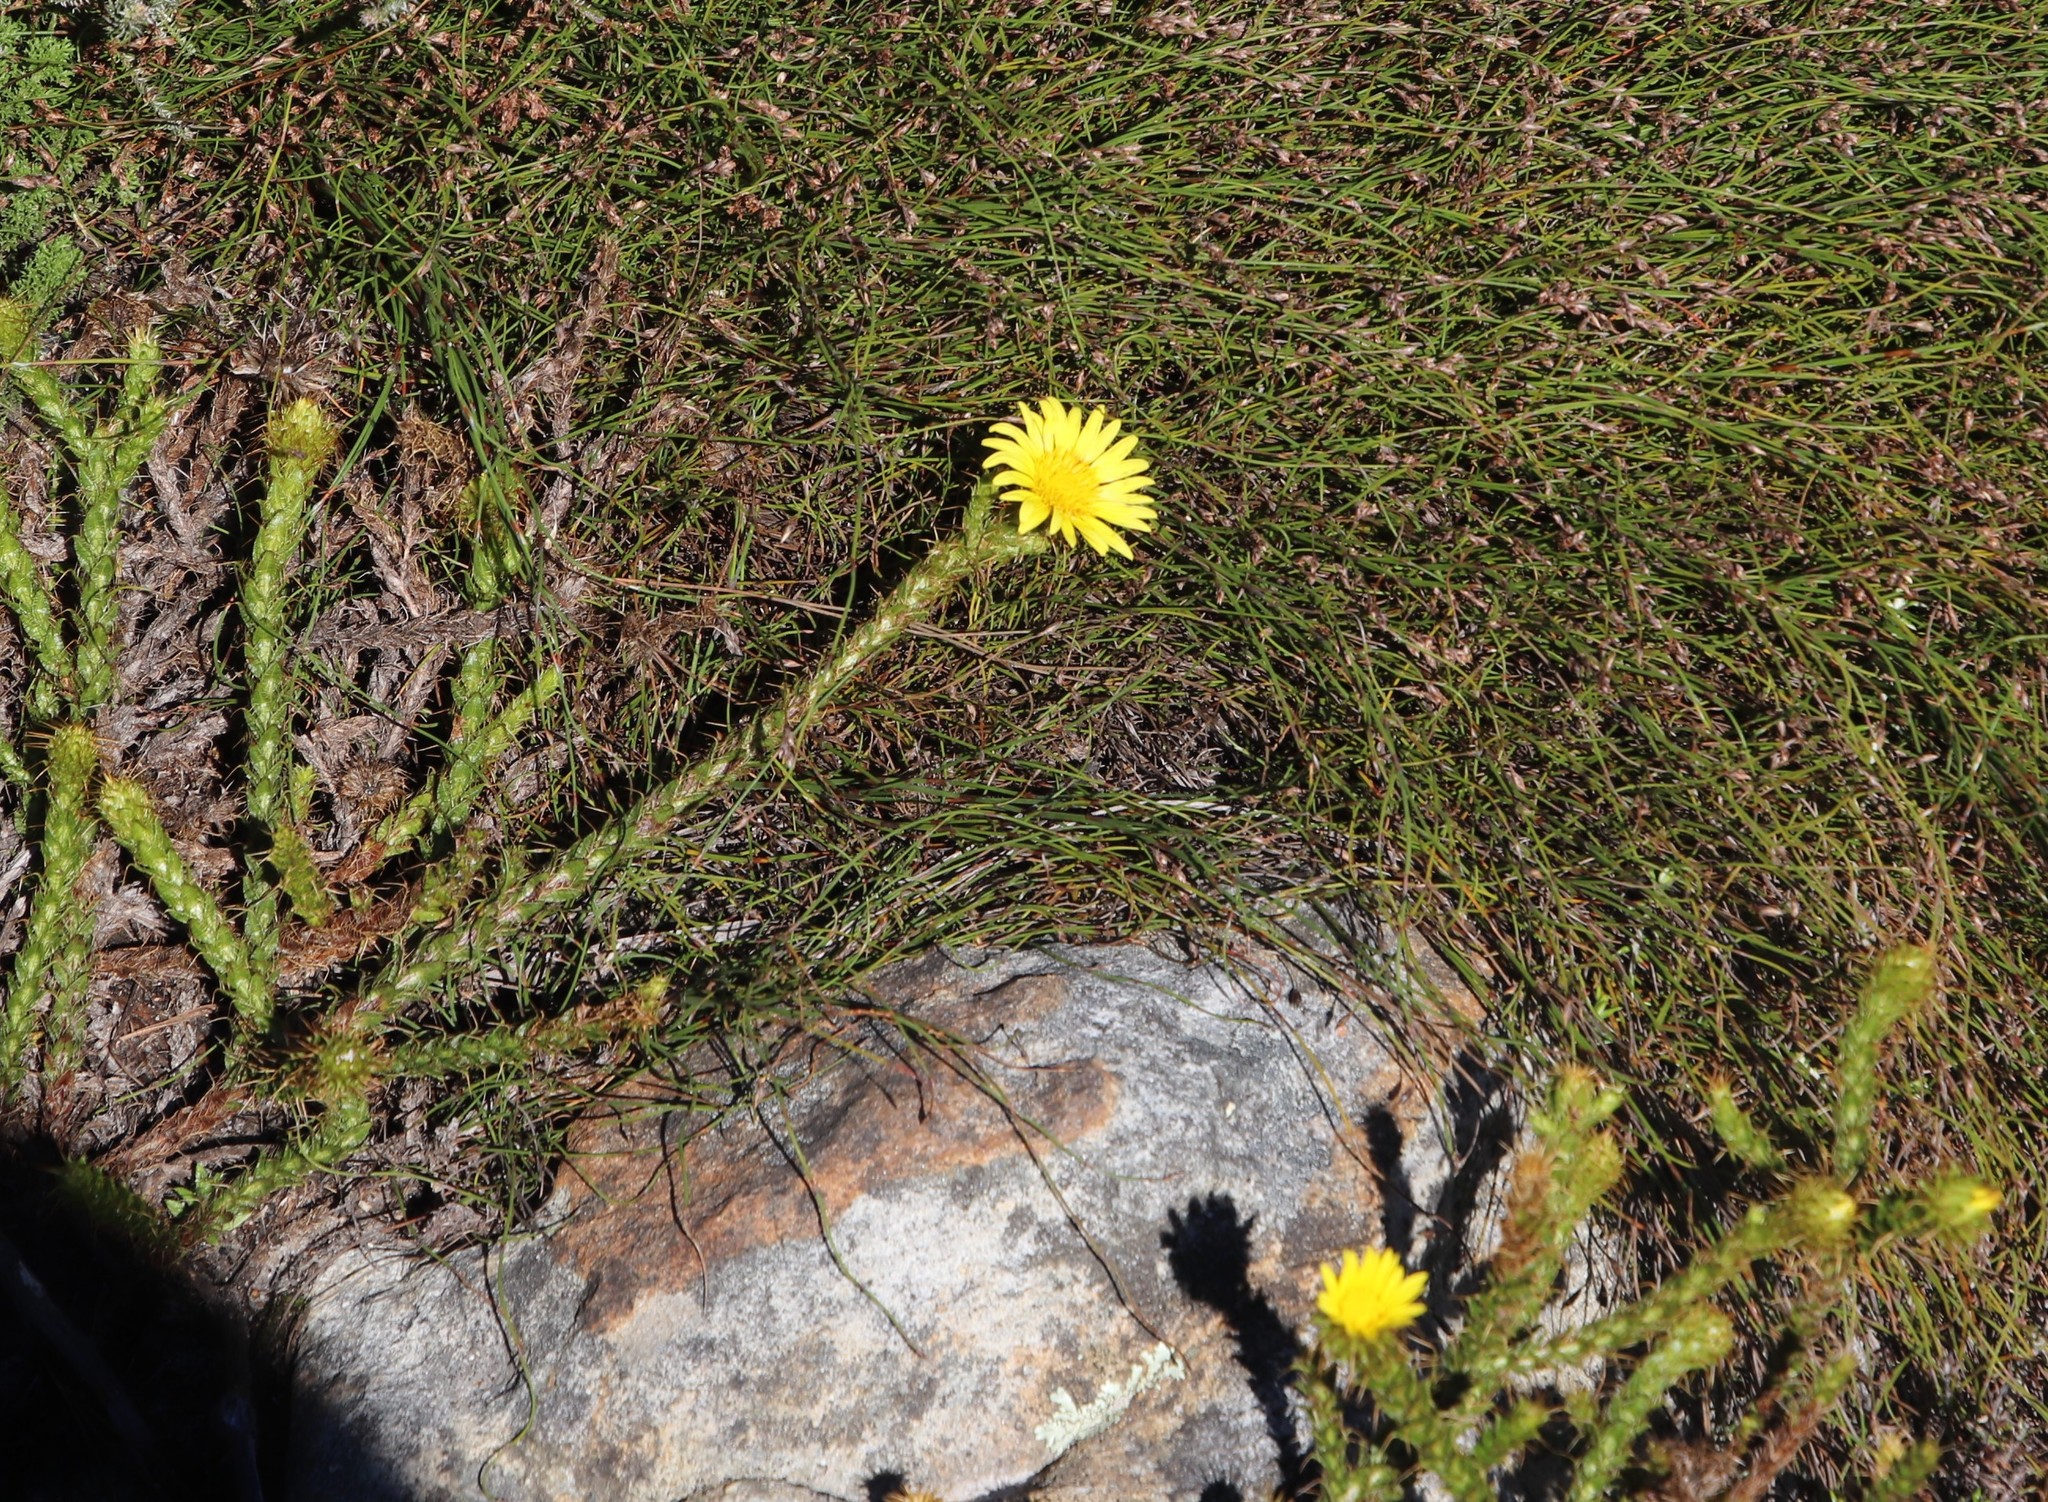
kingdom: Plantae
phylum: Tracheophyta
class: Magnoliopsida
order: Asterales
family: Asteraceae
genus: Cullumia
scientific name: Cullumia reticulata
